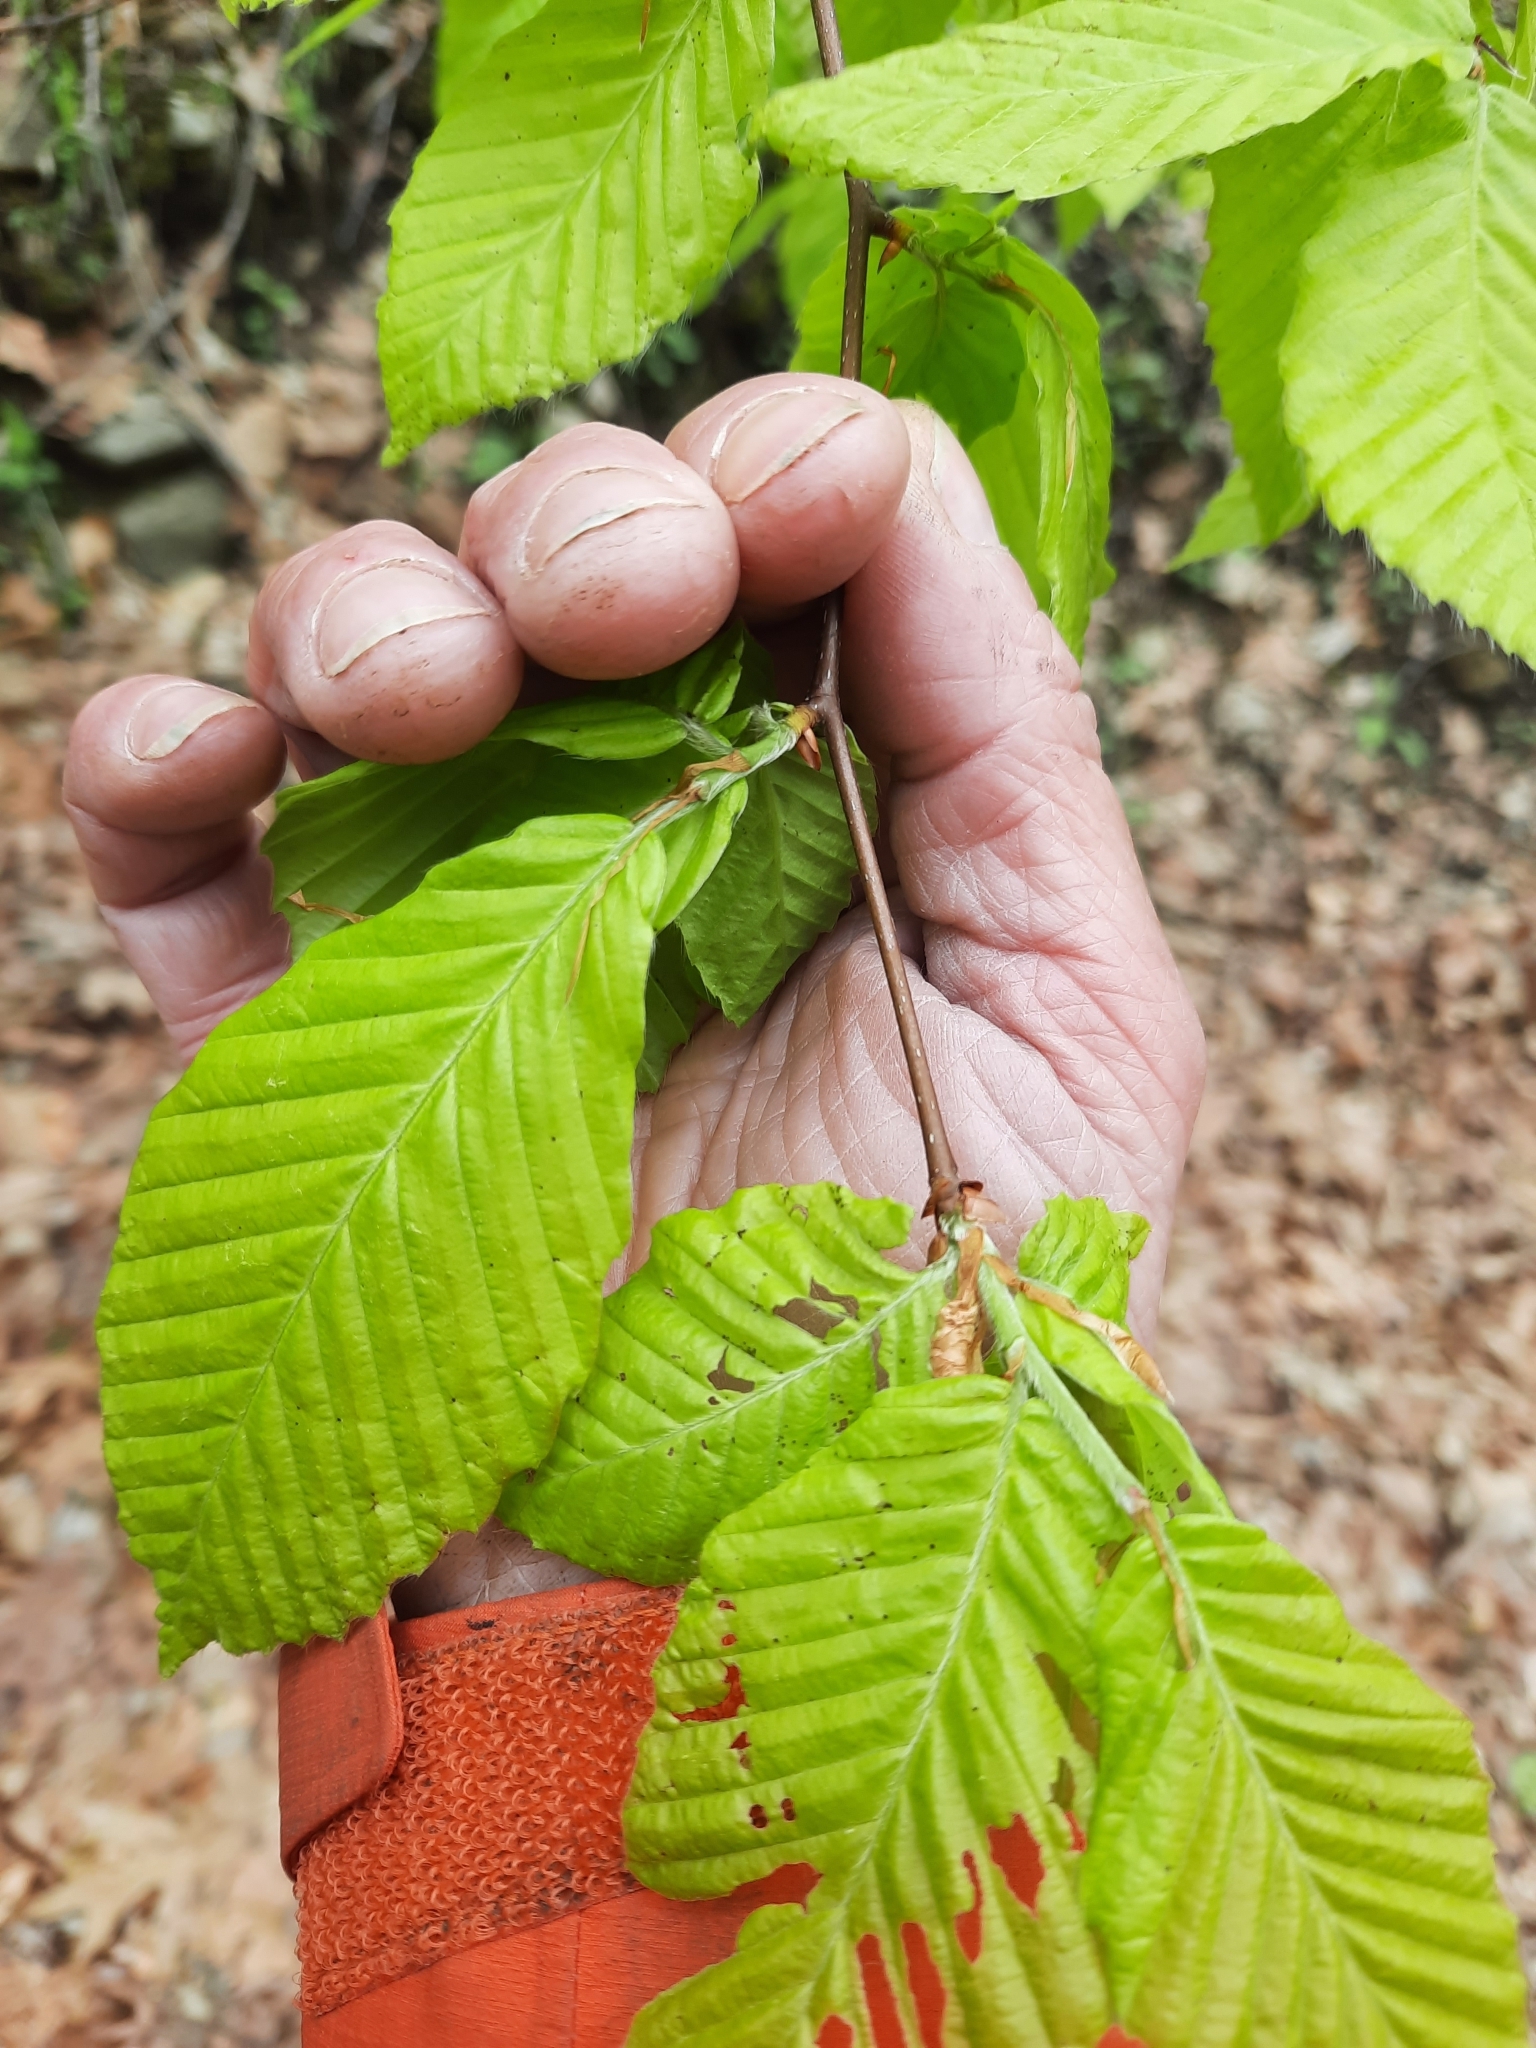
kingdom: Plantae
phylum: Tracheophyta
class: Magnoliopsida
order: Fagales
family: Fagaceae
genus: Fagus
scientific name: Fagus grandifolia
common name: American beech
